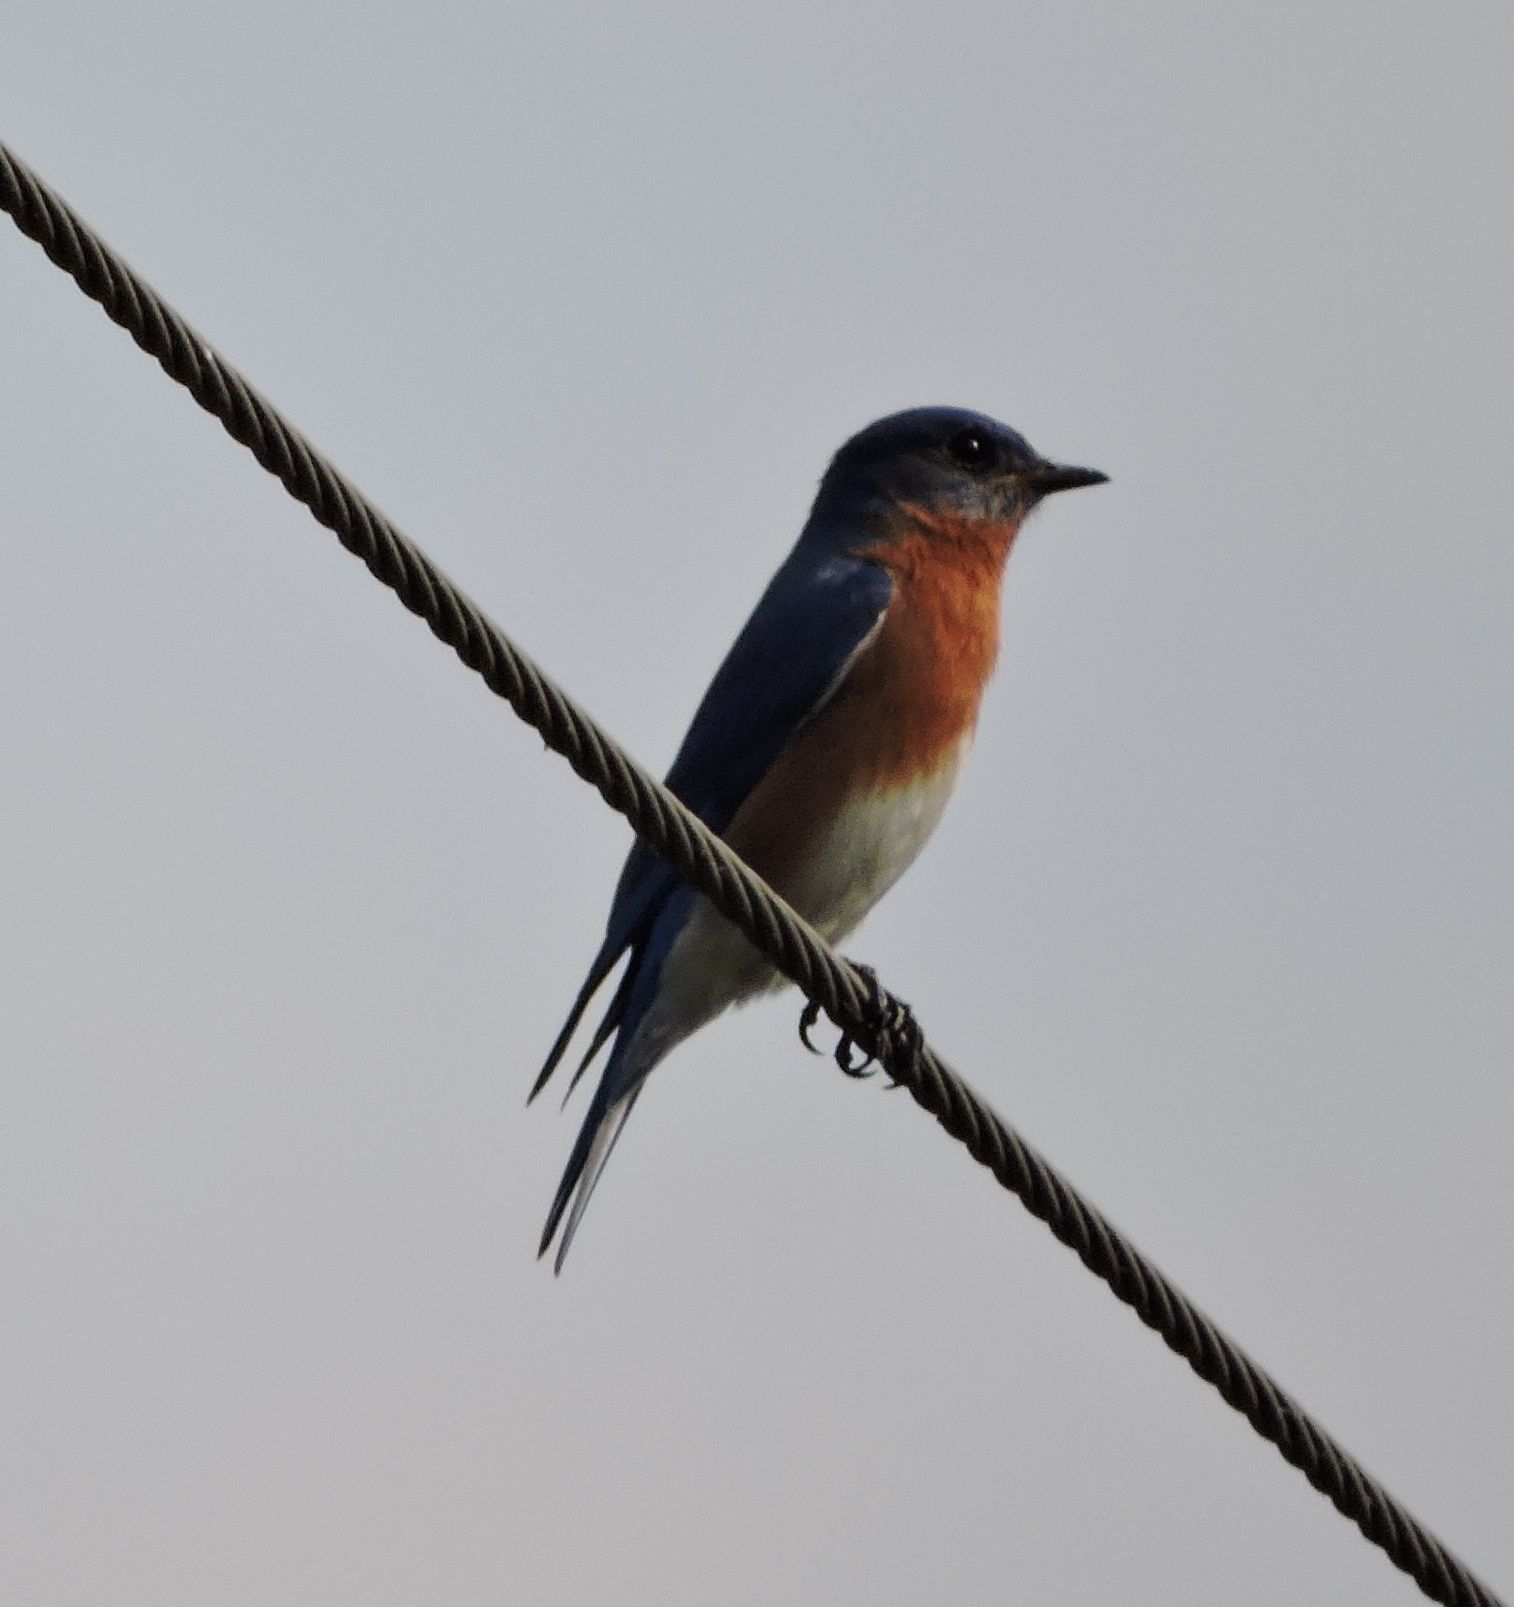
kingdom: Animalia
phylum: Chordata
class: Aves
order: Passeriformes
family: Turdidae
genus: Sialia
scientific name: Sialia sialis
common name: Eastern bluebird
